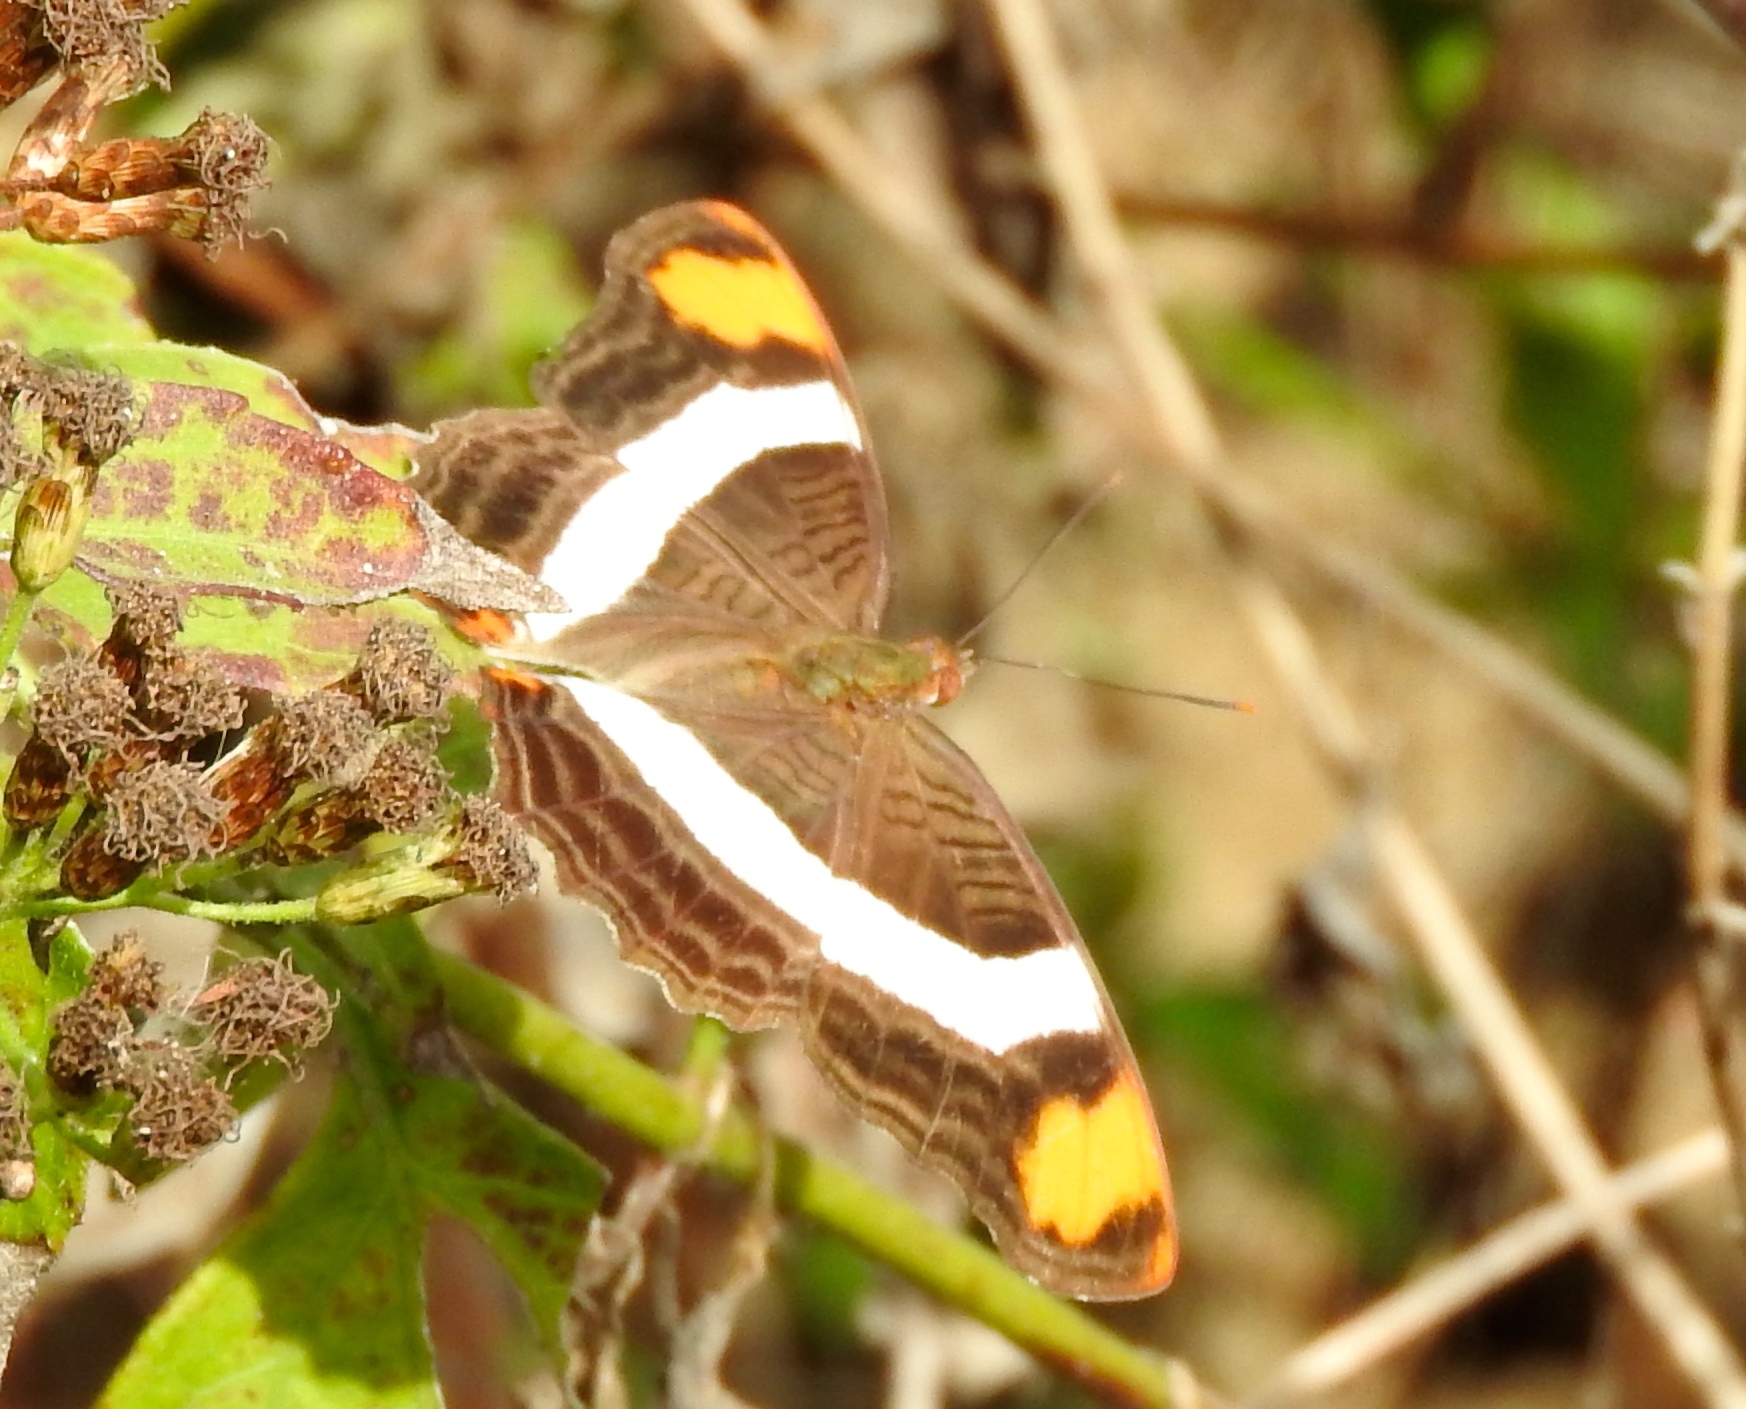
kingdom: Animalia
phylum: Arthropoda
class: Insecta
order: Lepidoptera
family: Nymphalidae
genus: Limenitis
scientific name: Limenitis fessonia
